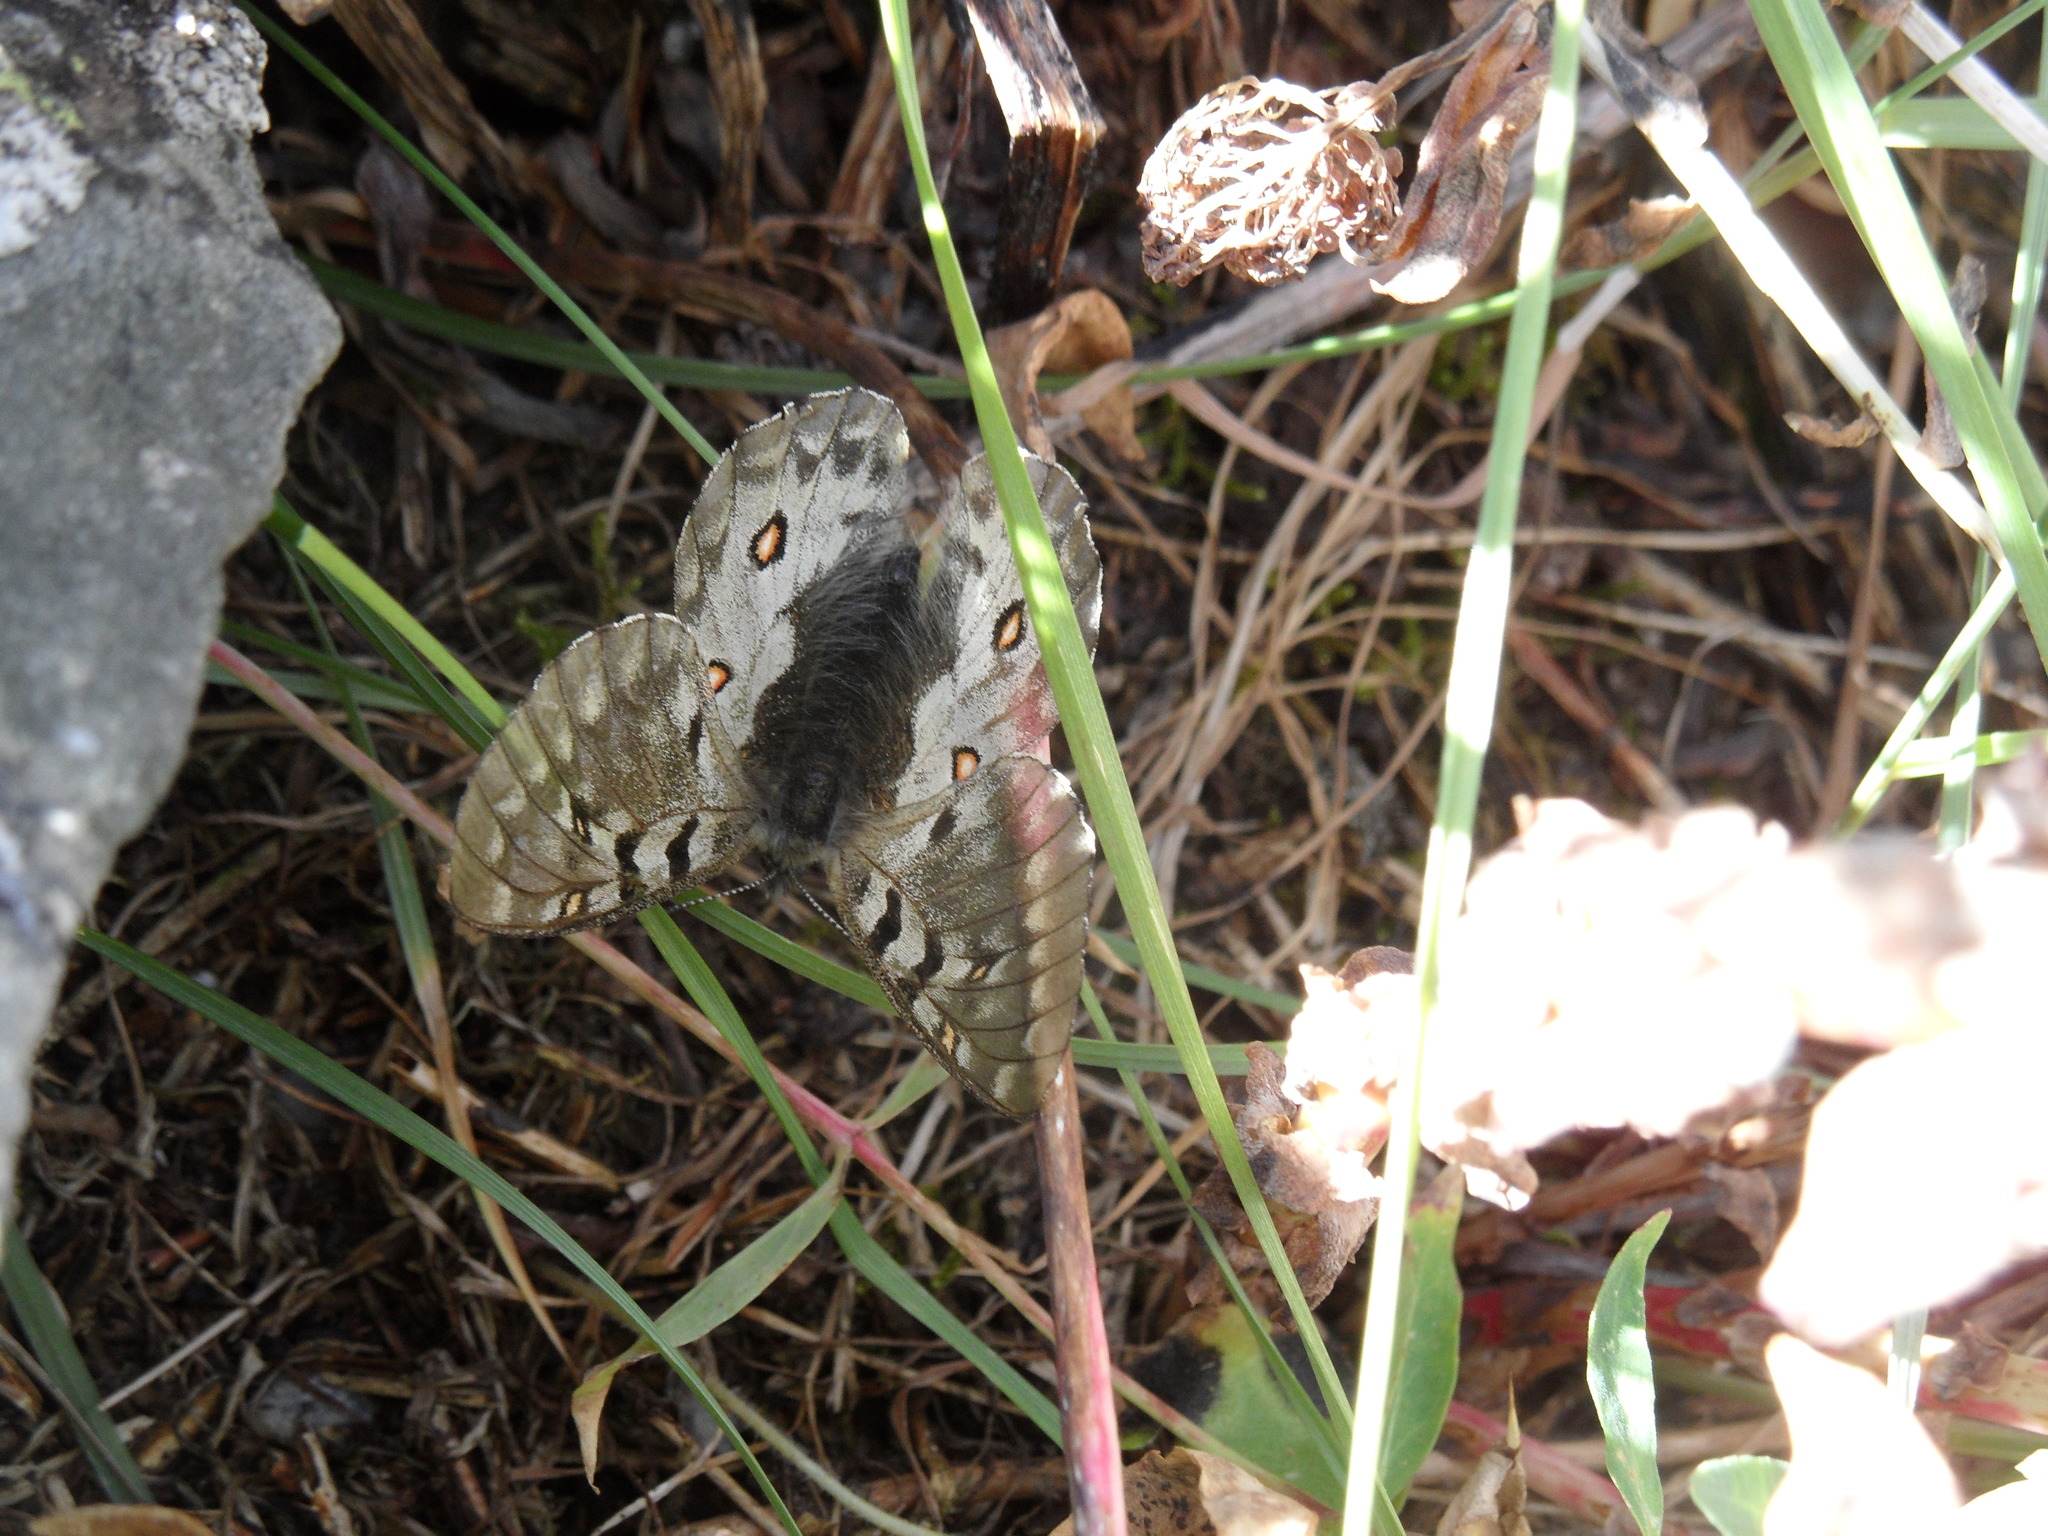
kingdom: Animalia
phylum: Arthropoda
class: Insecta
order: Lepidoptera
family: Papilionidae
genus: Parnassius
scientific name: Parnassius phoebus
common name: Small apollo
